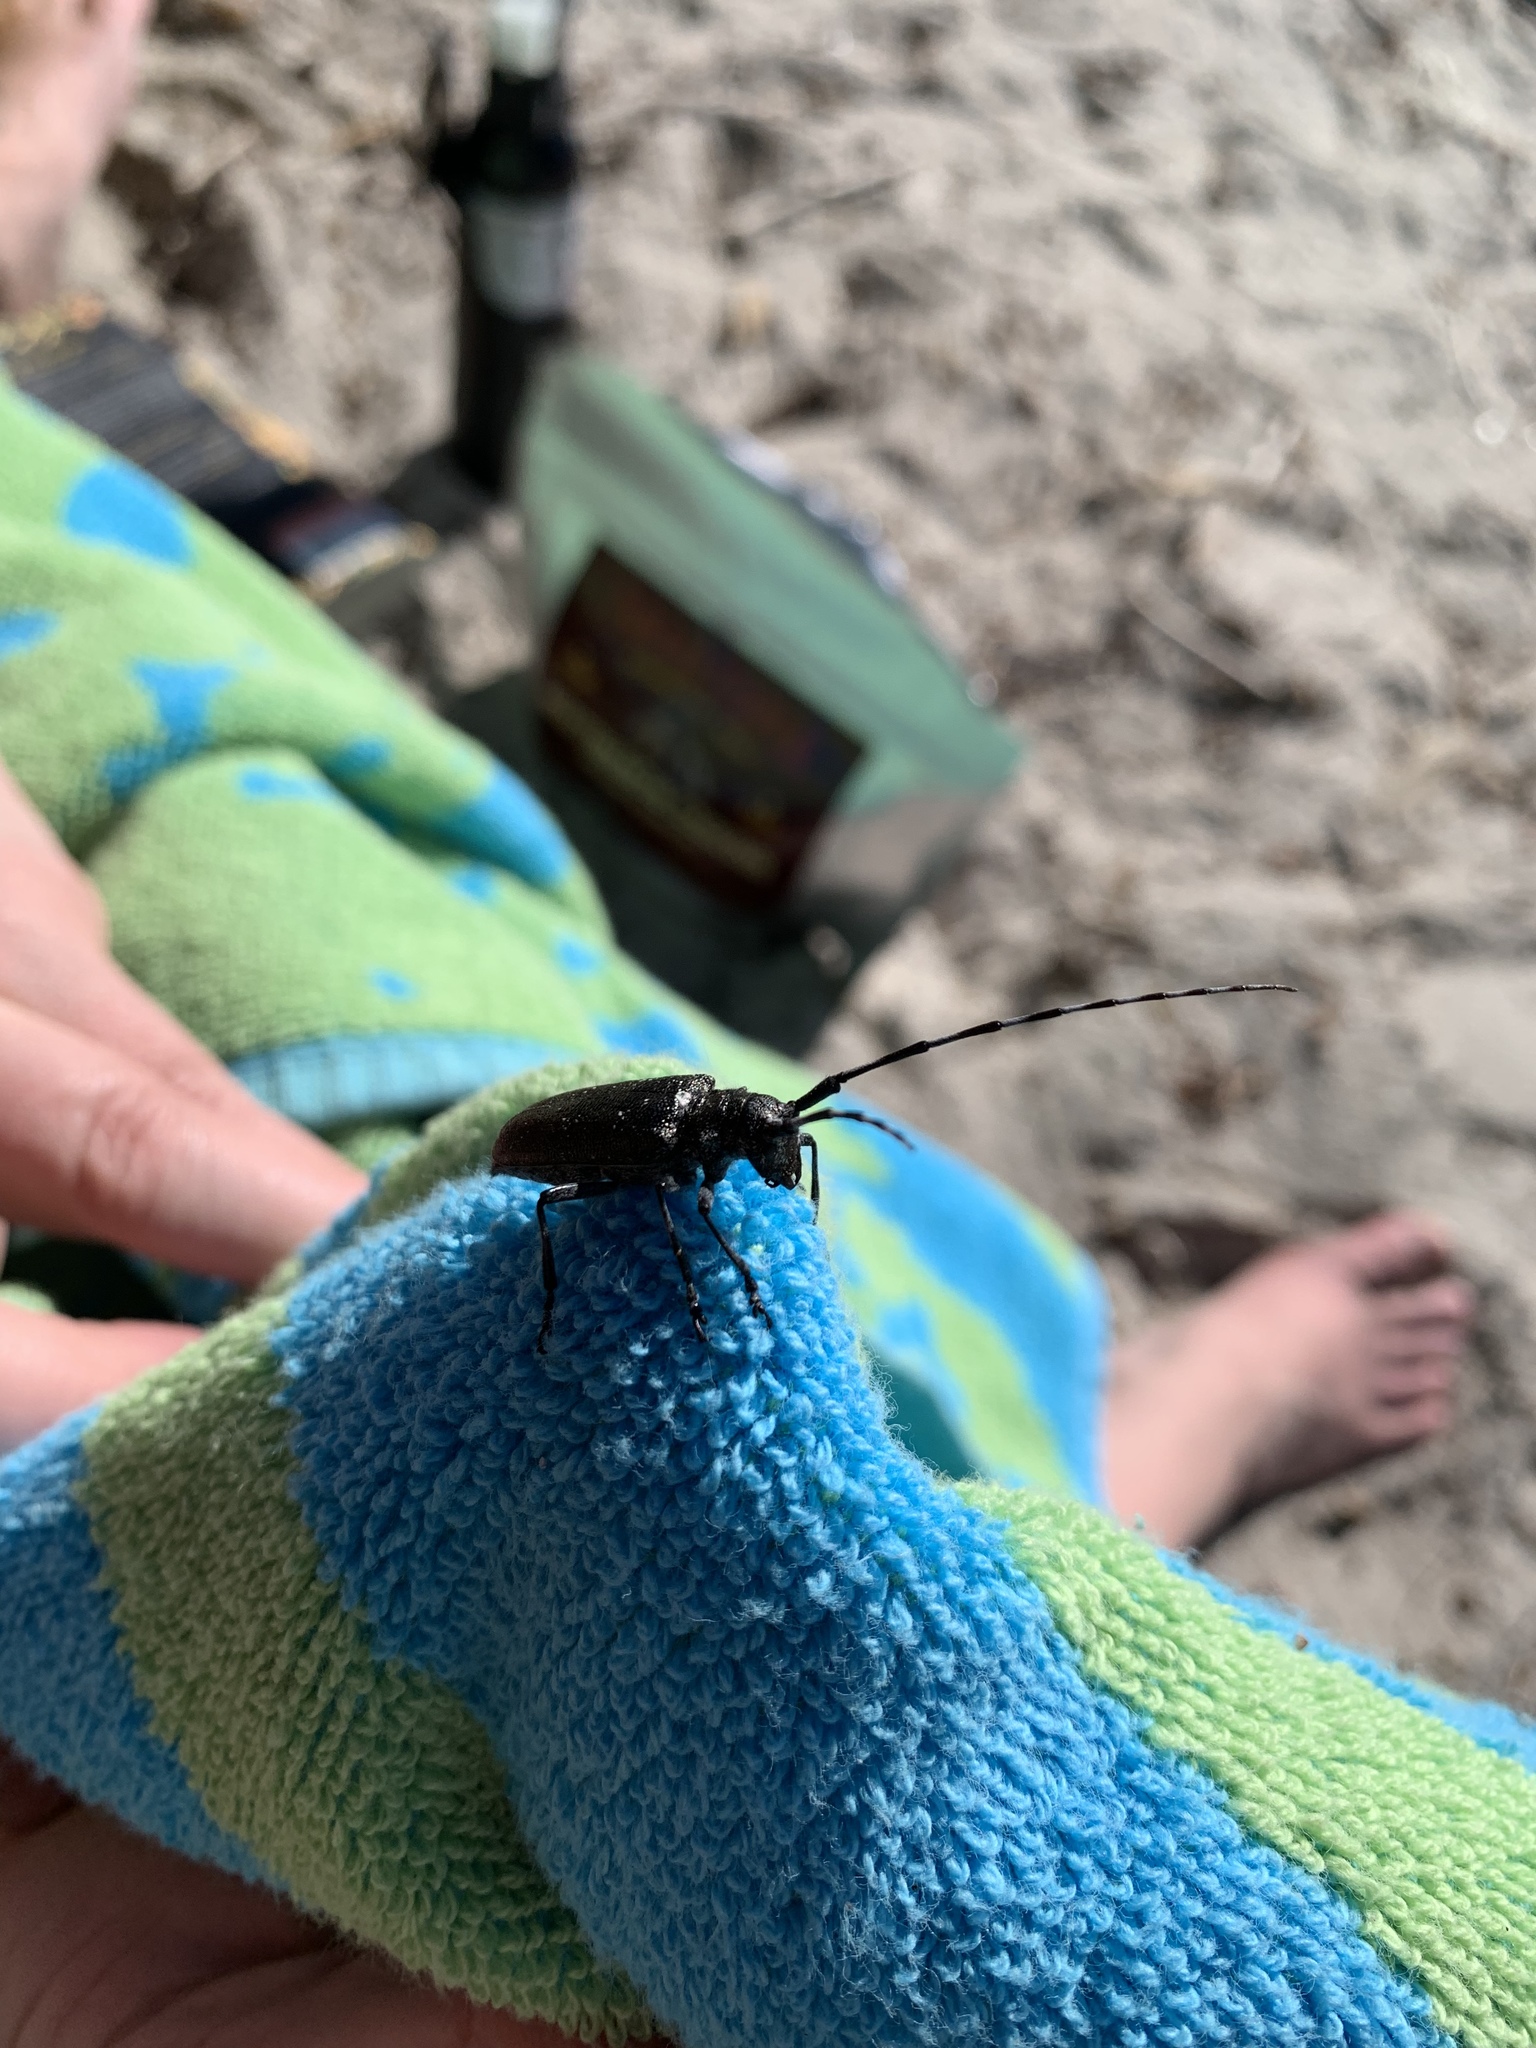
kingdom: Animalia
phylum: Arthropoda
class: Insecta
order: Coleoptera
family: Cerambycidae
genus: Monochamus
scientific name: Monochamus scutellatus
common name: White-spotted sawyer beetle
